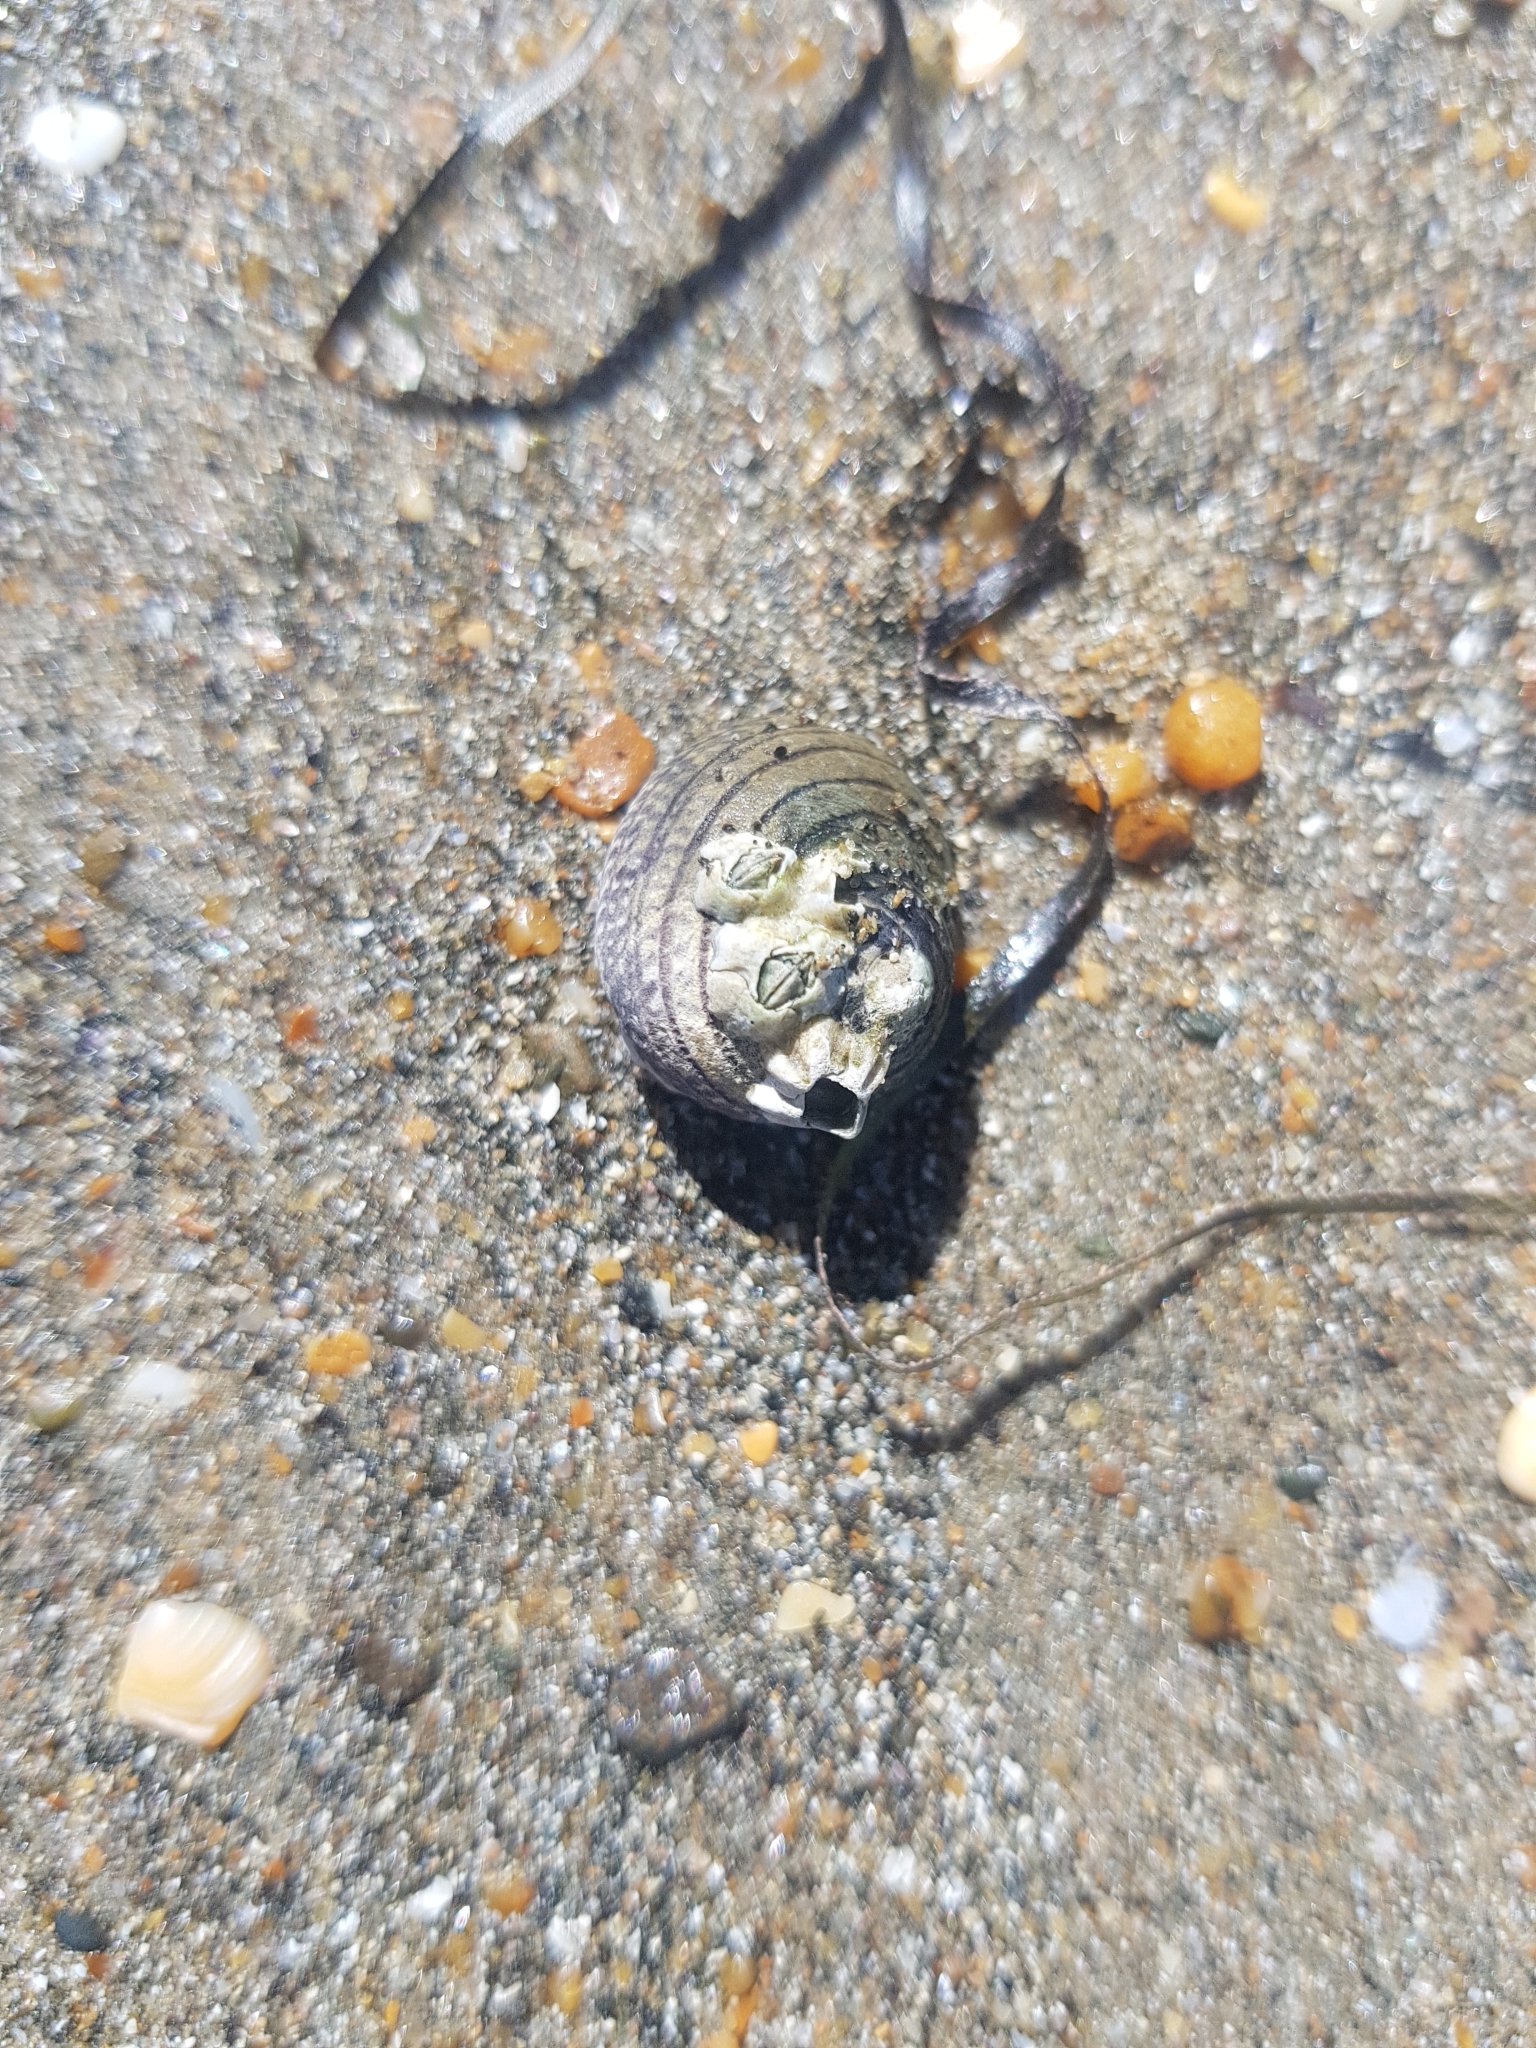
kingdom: Animalia
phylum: Mollusca
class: Gastropoda
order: Trochida
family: Trochidae
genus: Diloma
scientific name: Diloma aethiops
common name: Scorched monodont
